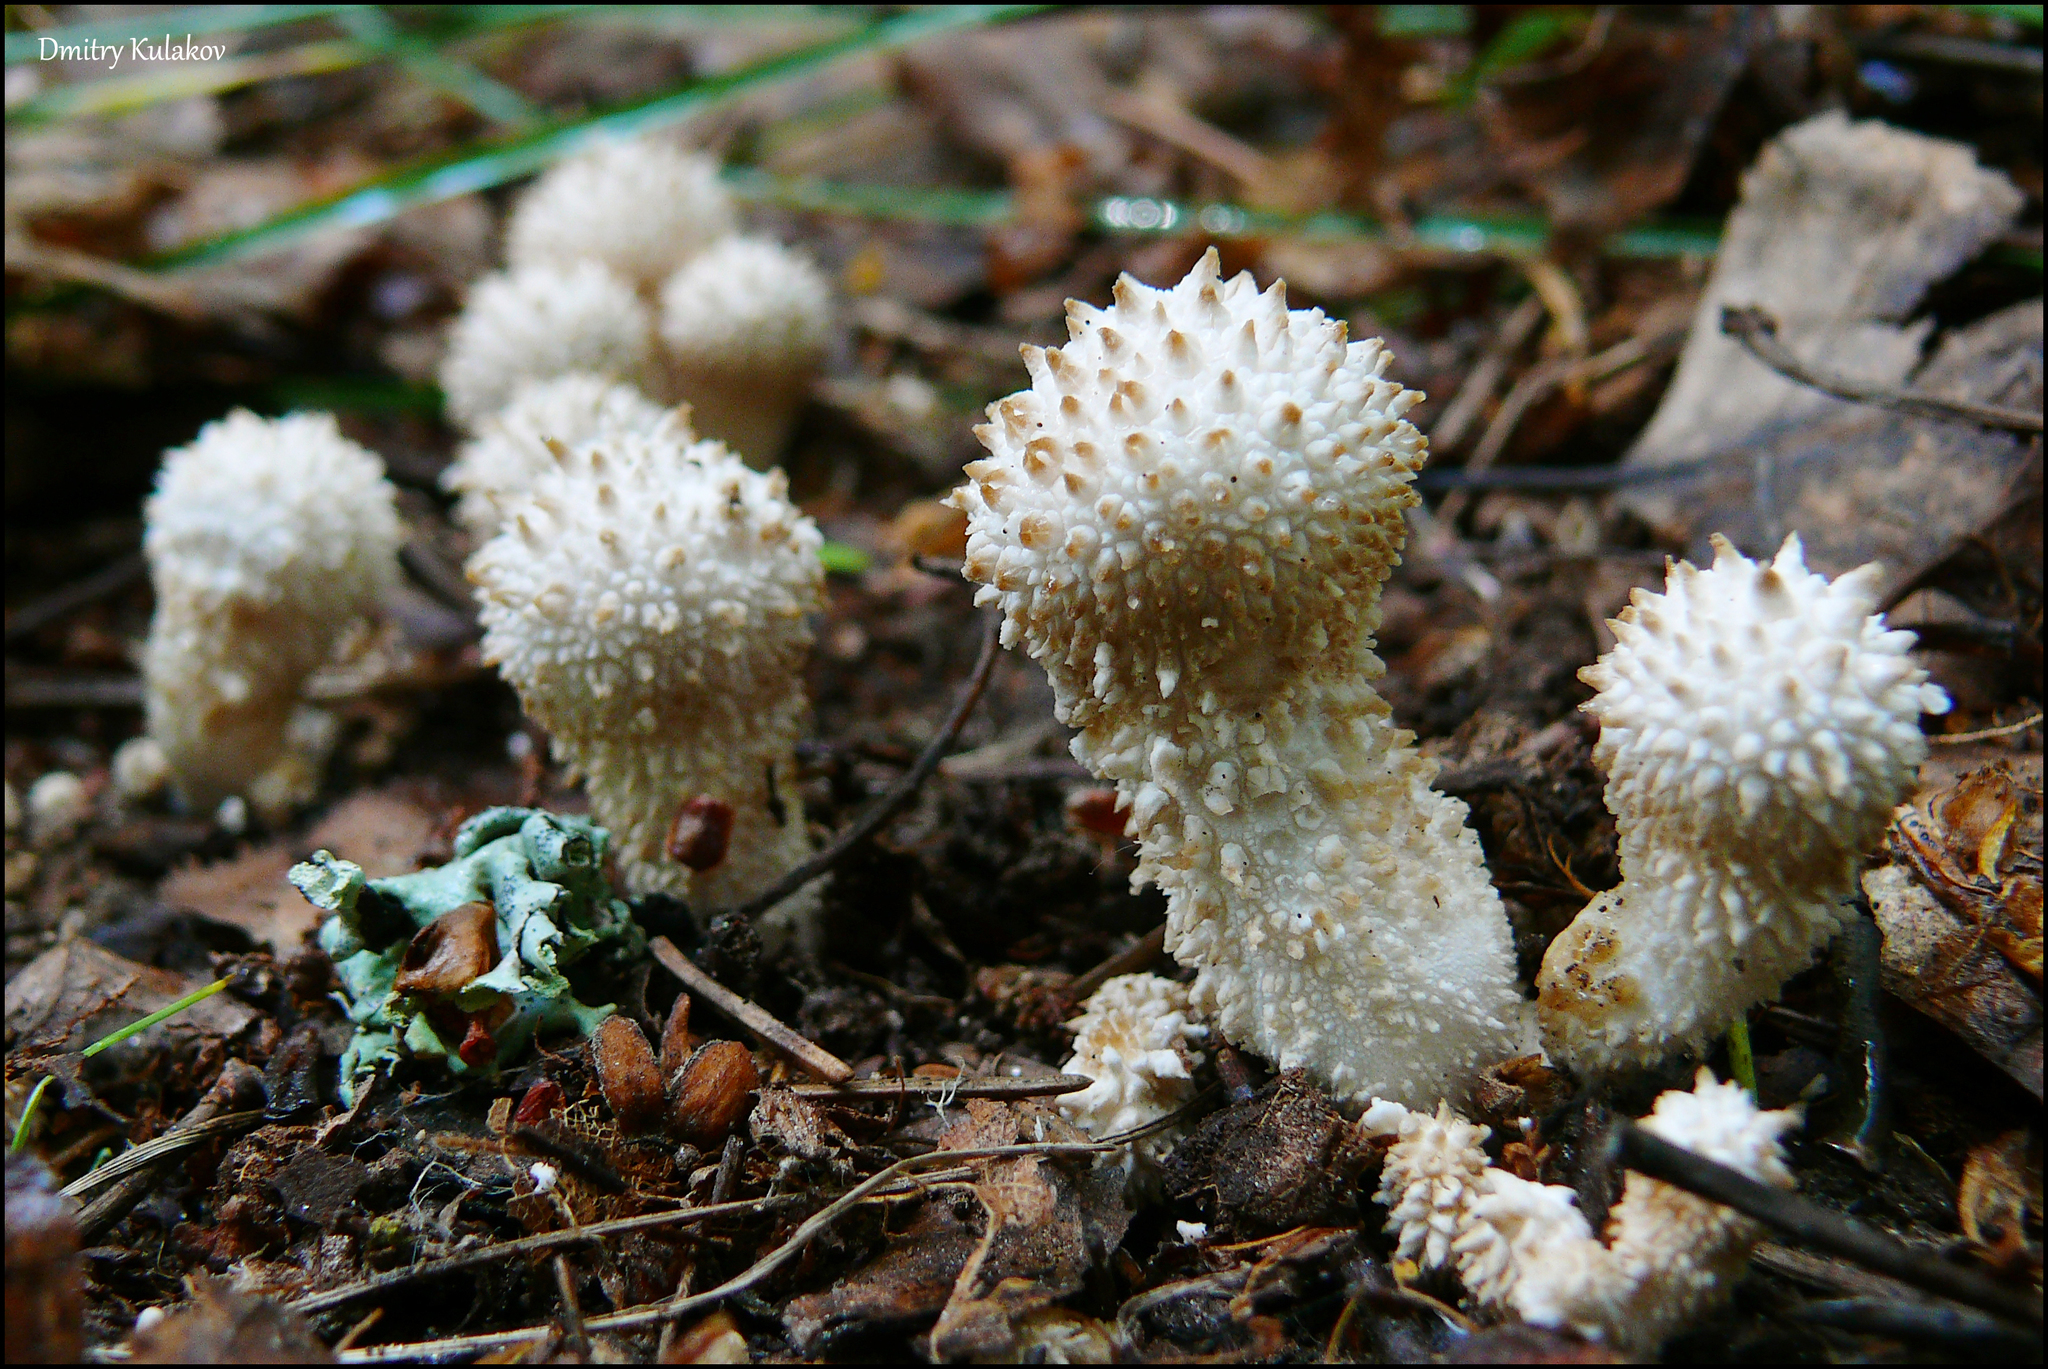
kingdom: Fungi
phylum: Basidiomycota
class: Agaricomycetes
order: Agaricales
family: Lycoperdaceae
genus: Lycoperdon
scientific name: Lycoperdon perlatum
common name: Common puffball
